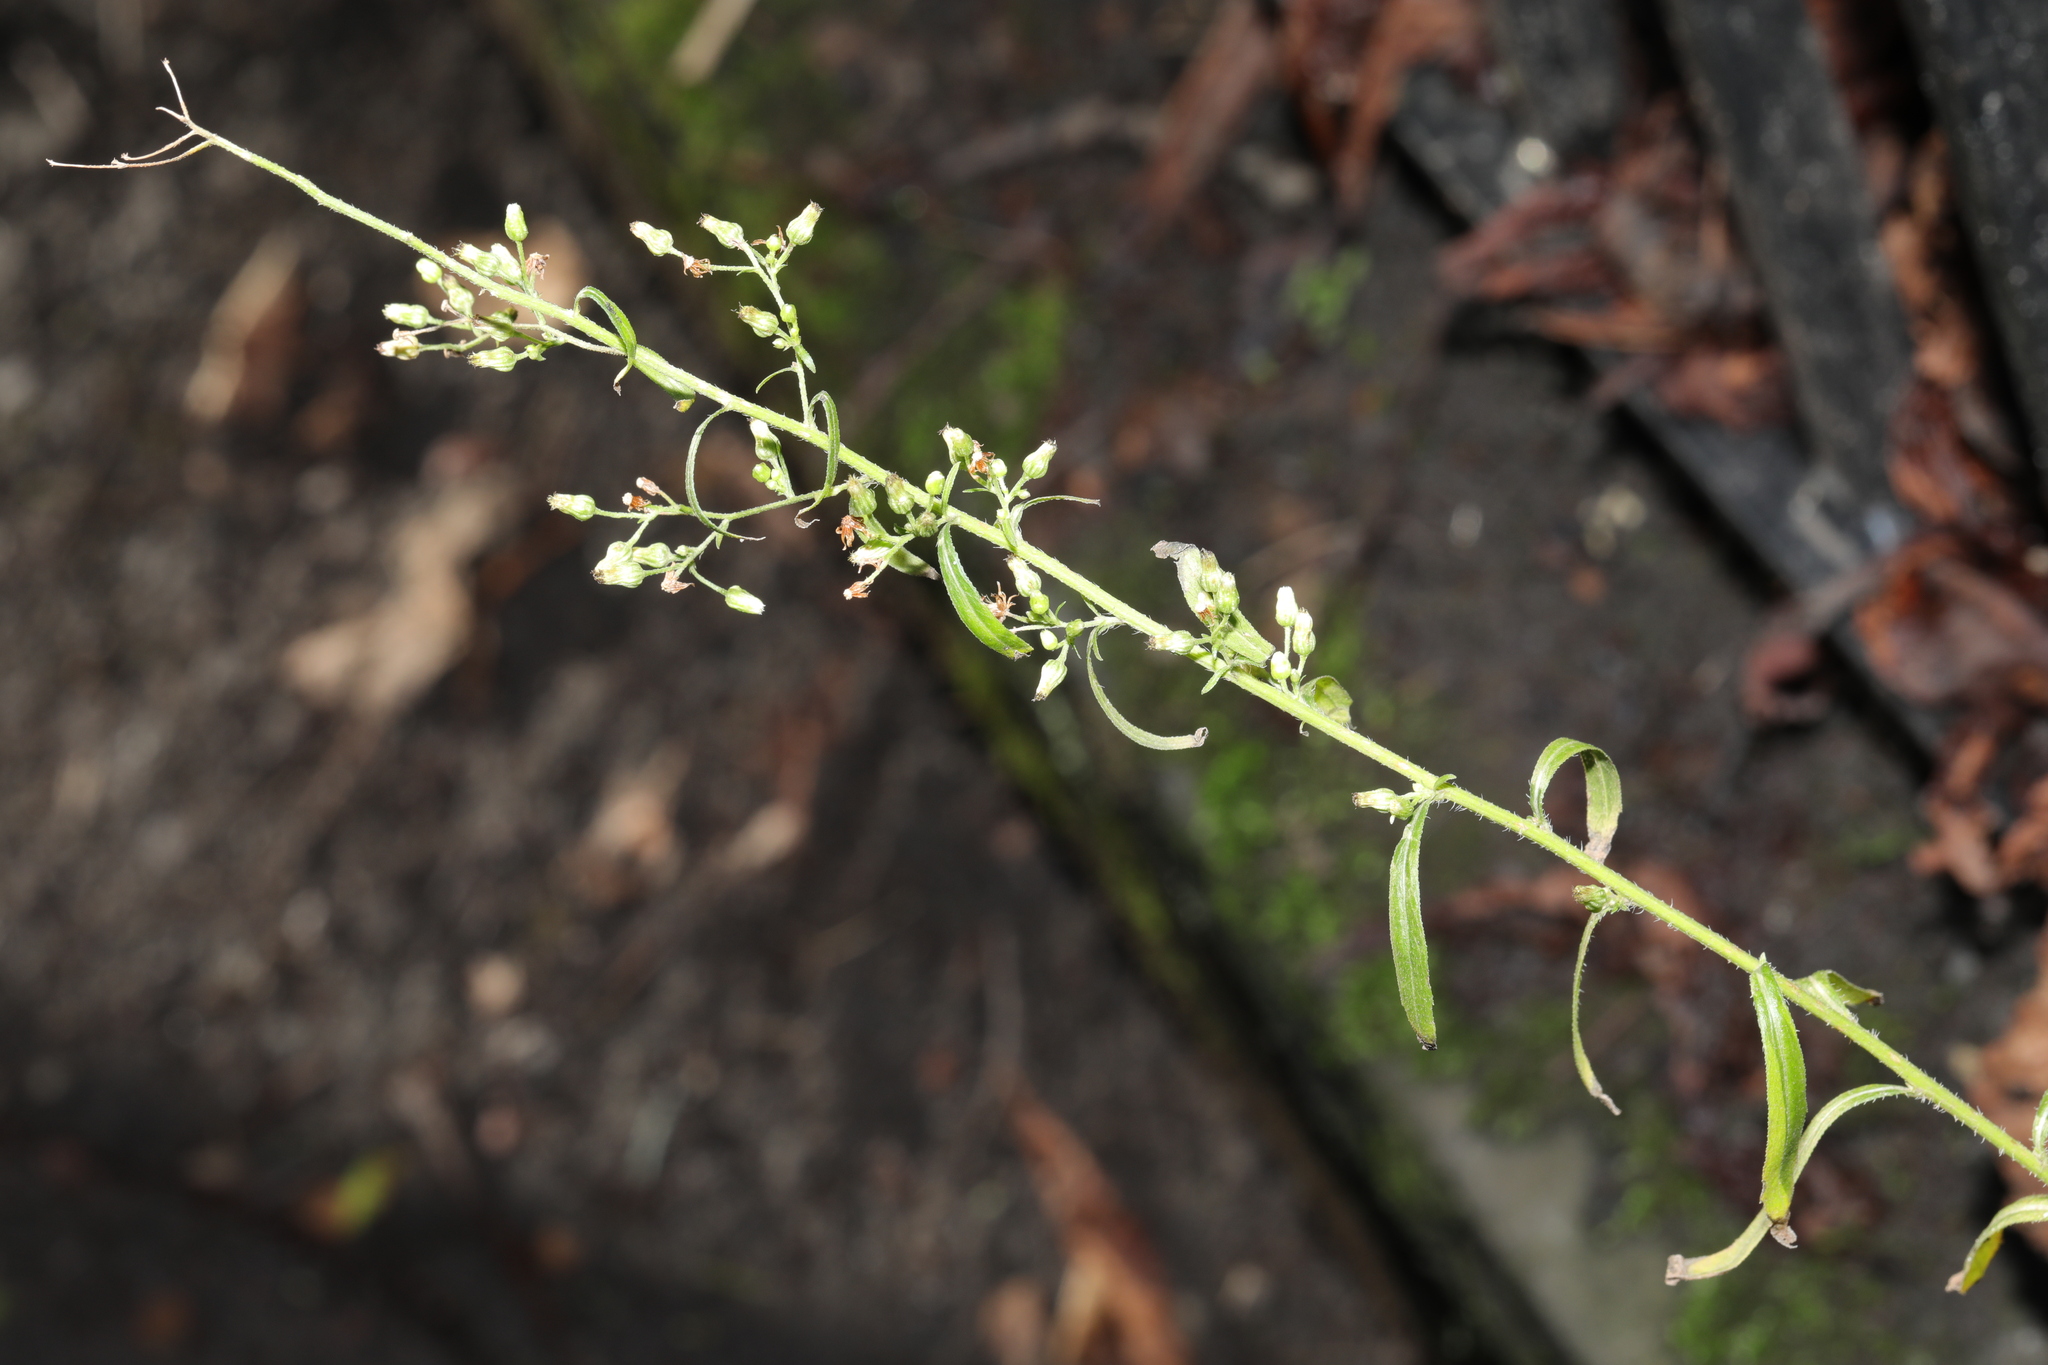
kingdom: Plantae
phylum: Tracheophyta
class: Magnoliopsida
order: Asterales
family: Asteraceae
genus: Erigeron
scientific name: Erigeron floribundus
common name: Bilbao fleabane
